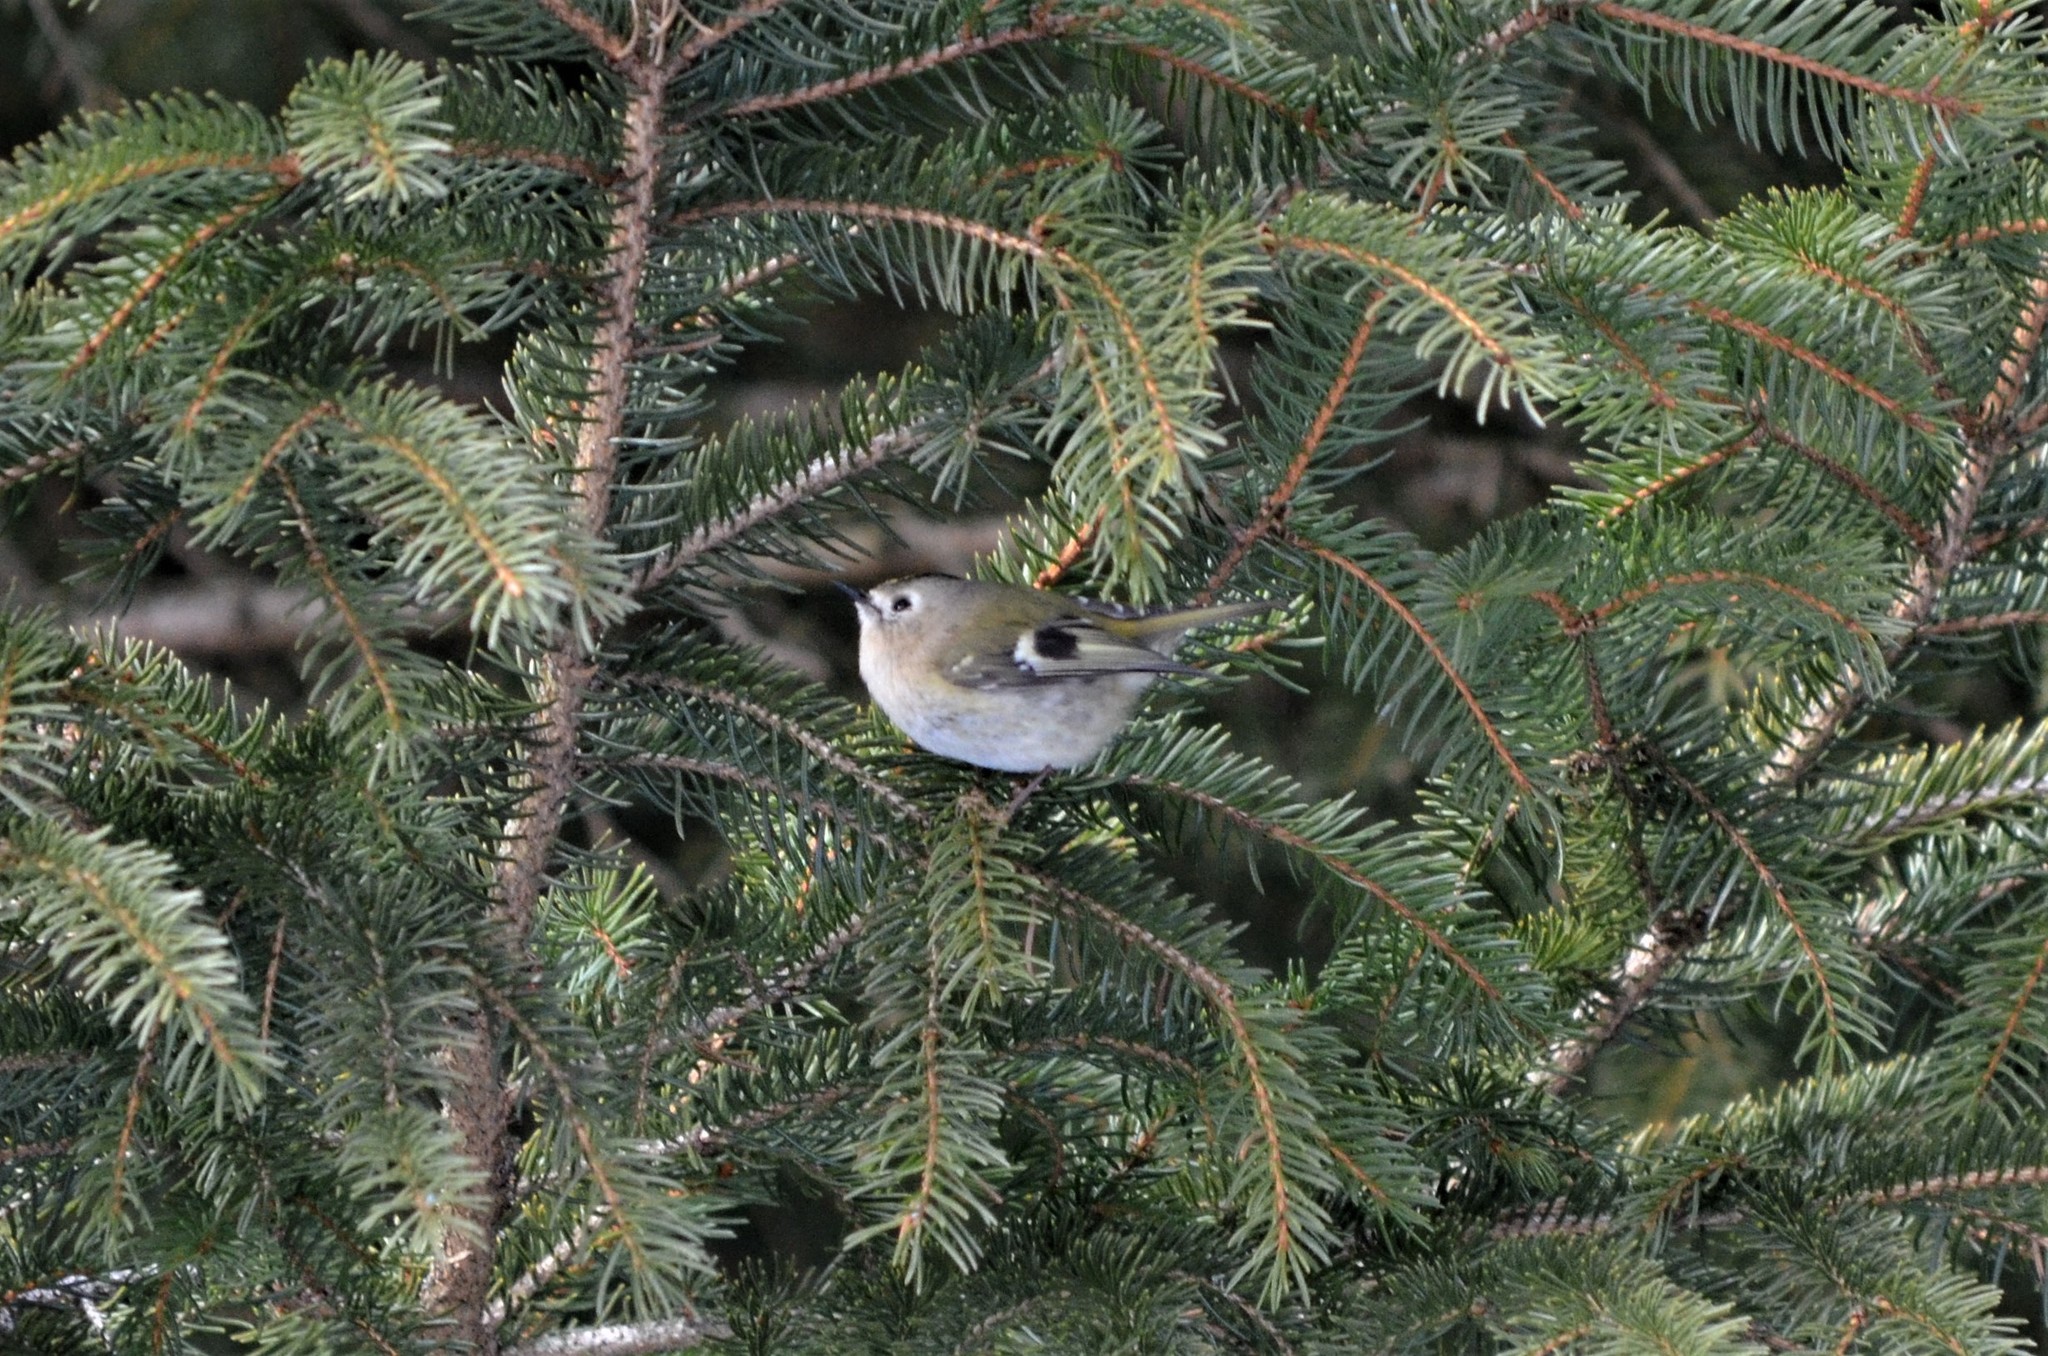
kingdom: Animalia
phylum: Chordata
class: Aves
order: Passeriformes
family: Regulidae
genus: Regulus
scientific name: Regulus regulus
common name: Goldcrest
